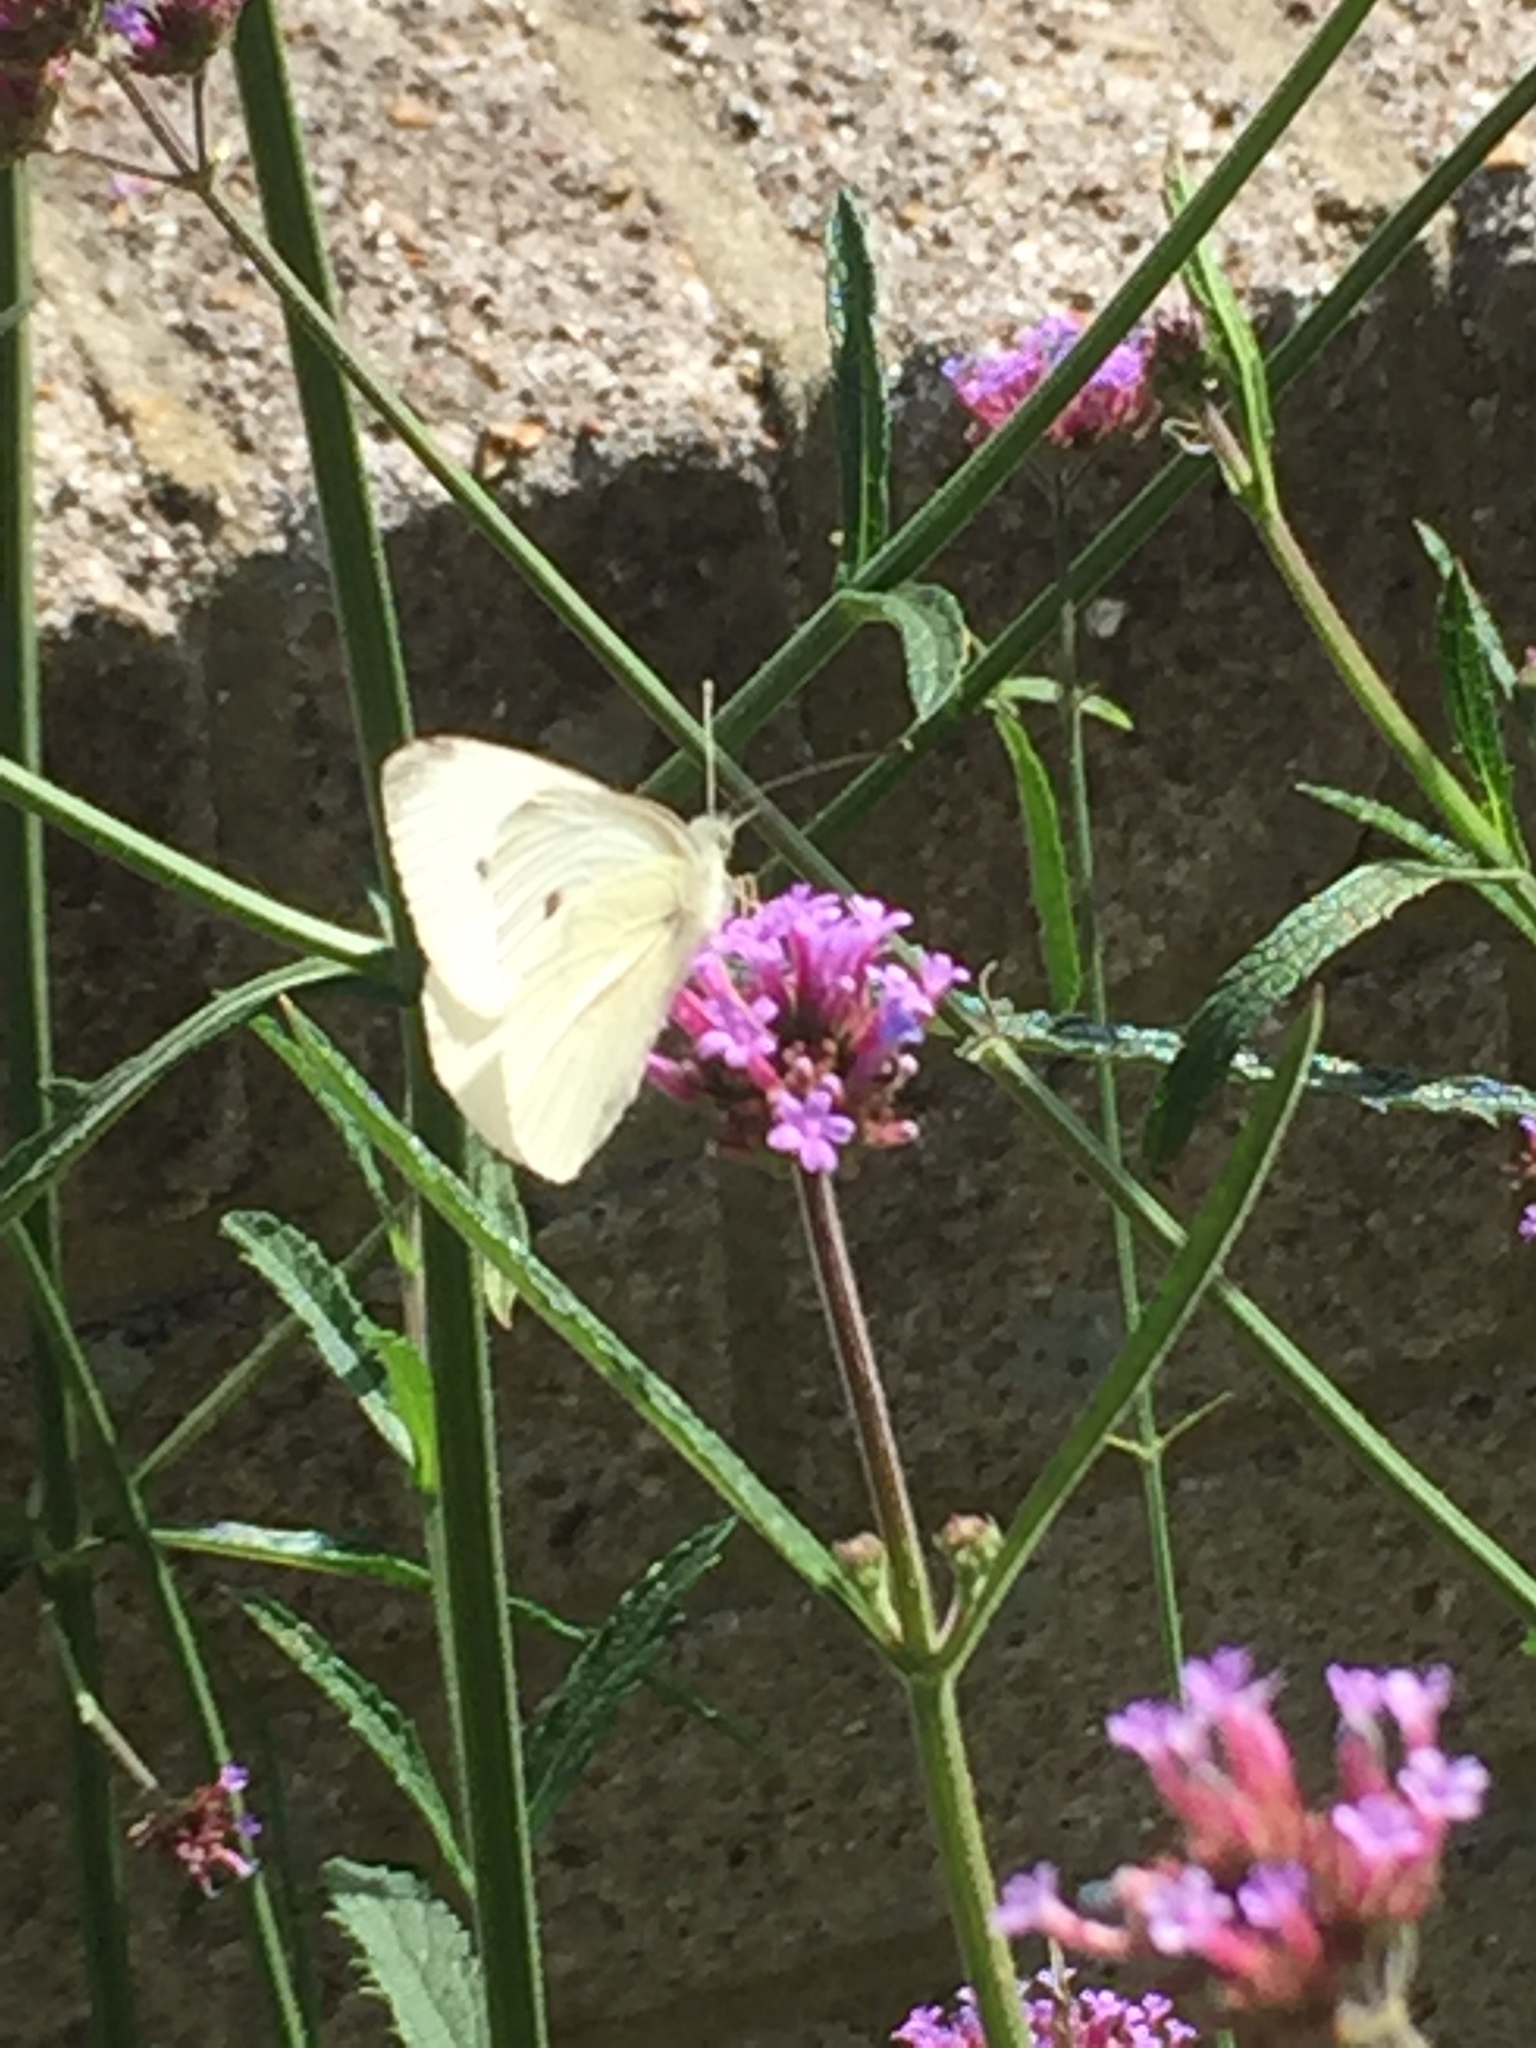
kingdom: Animalia
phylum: Arthropoda
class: Insecta
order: Lepidoptera
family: Pieridae
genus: Pieris
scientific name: Pieris rapae
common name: Small white
